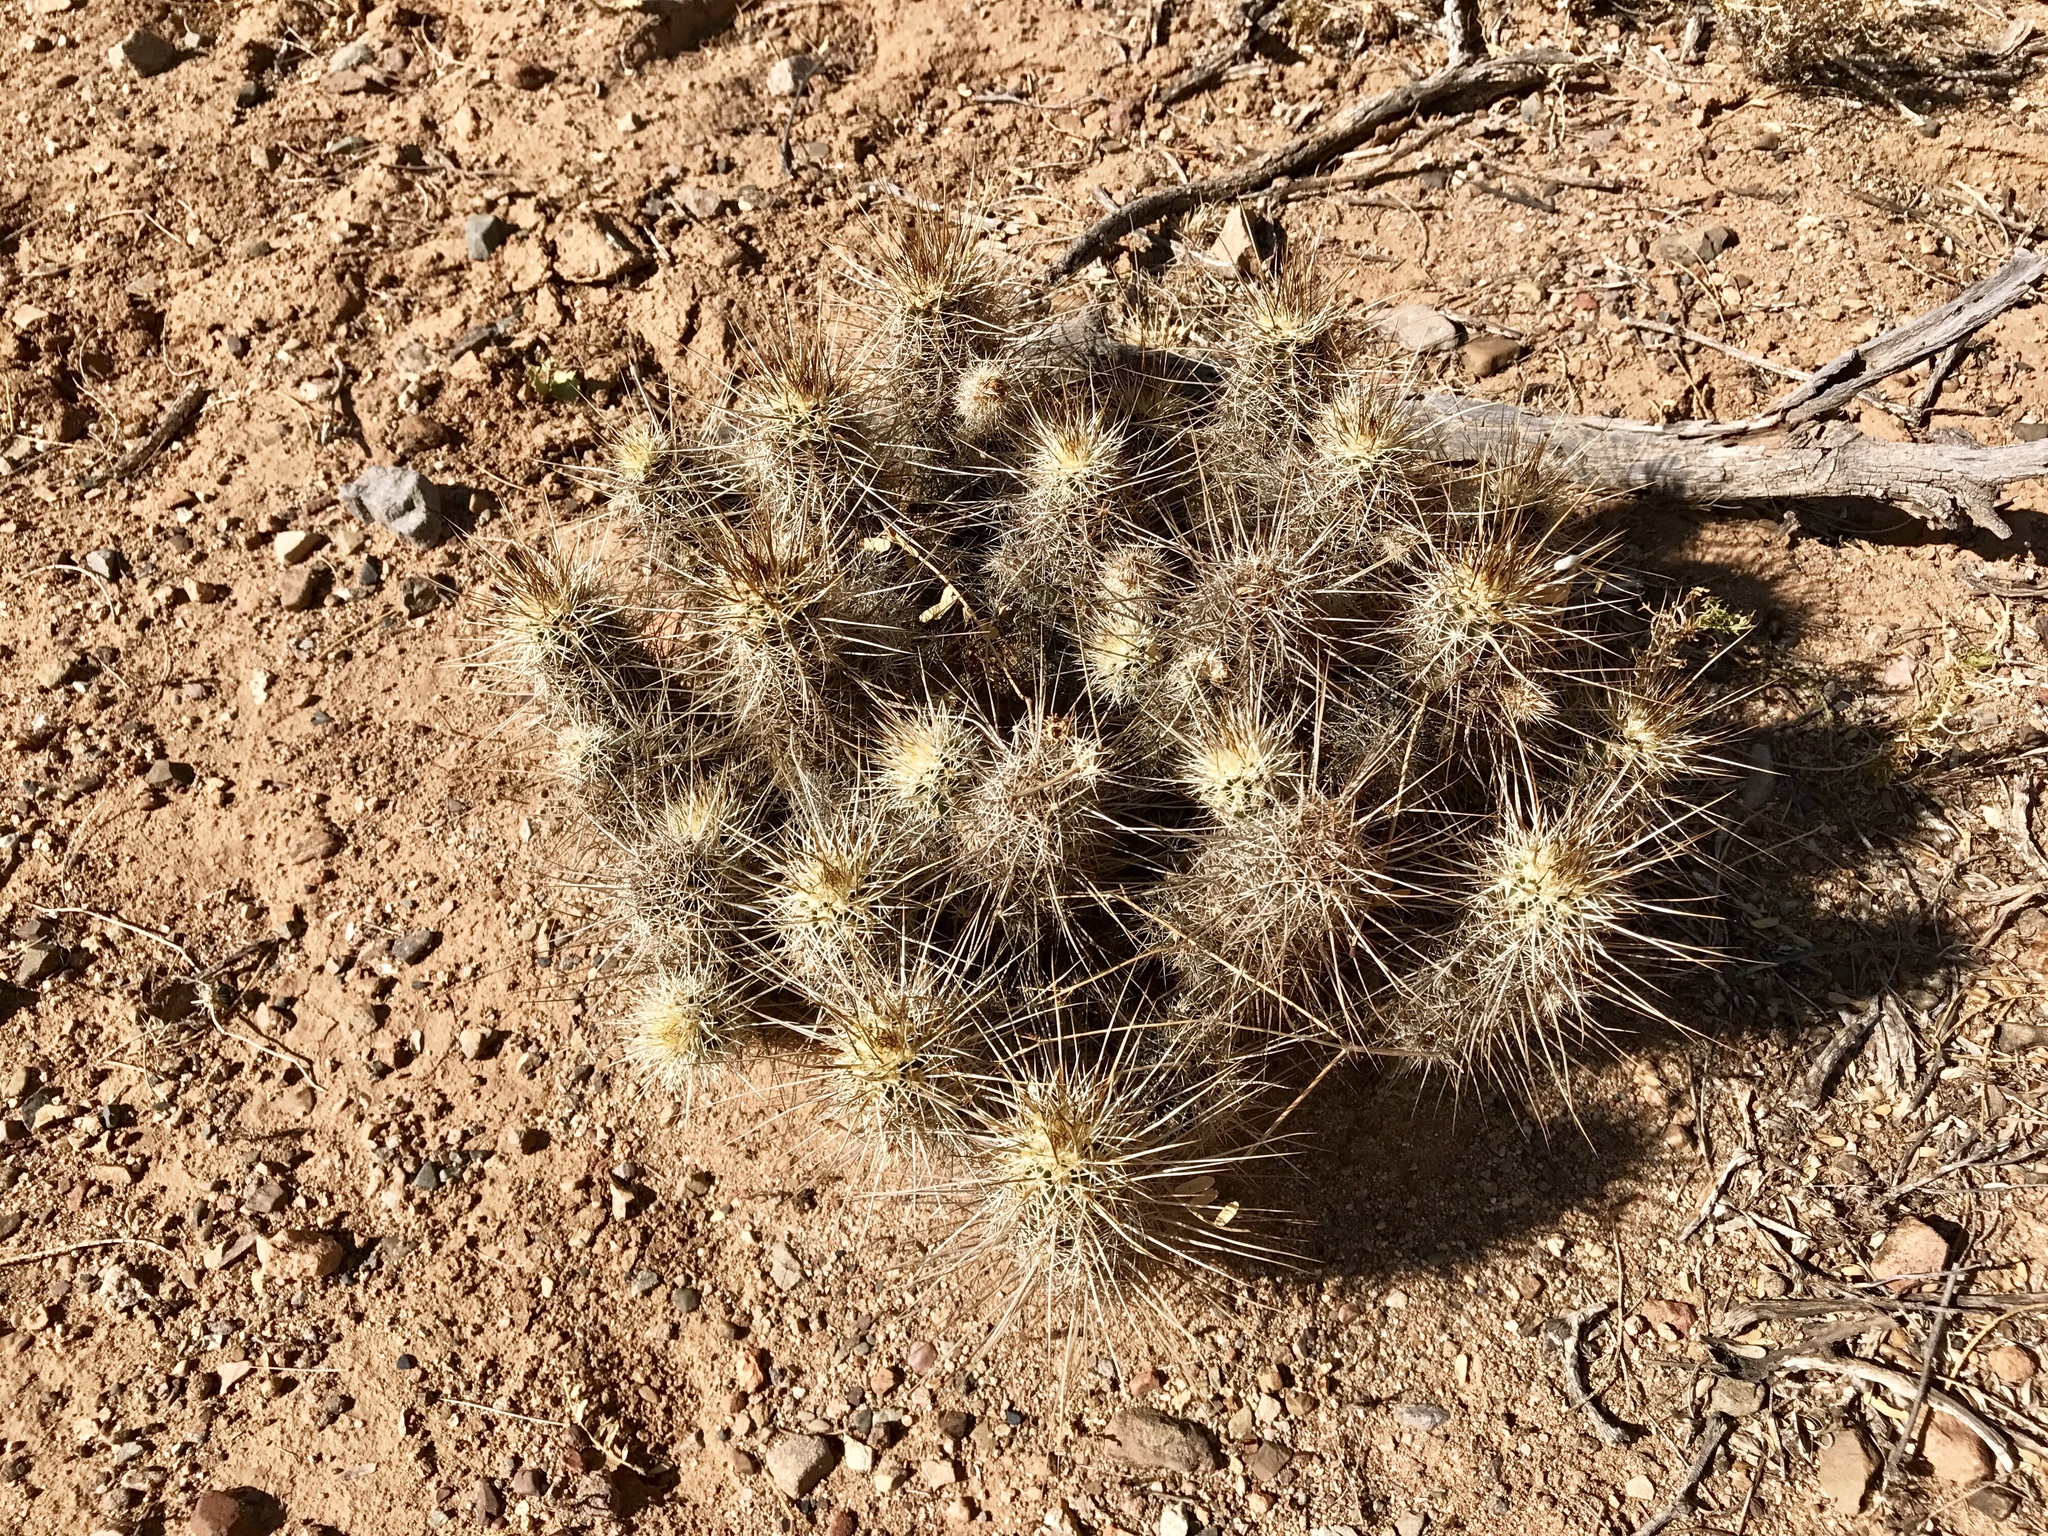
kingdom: Plantae
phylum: Tracheophyta
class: Magnoliopsida
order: Caryophyllales
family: Cactaceae
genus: Echinocereus
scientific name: Echinocereus fasciculatus
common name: Bundle hedgehog
